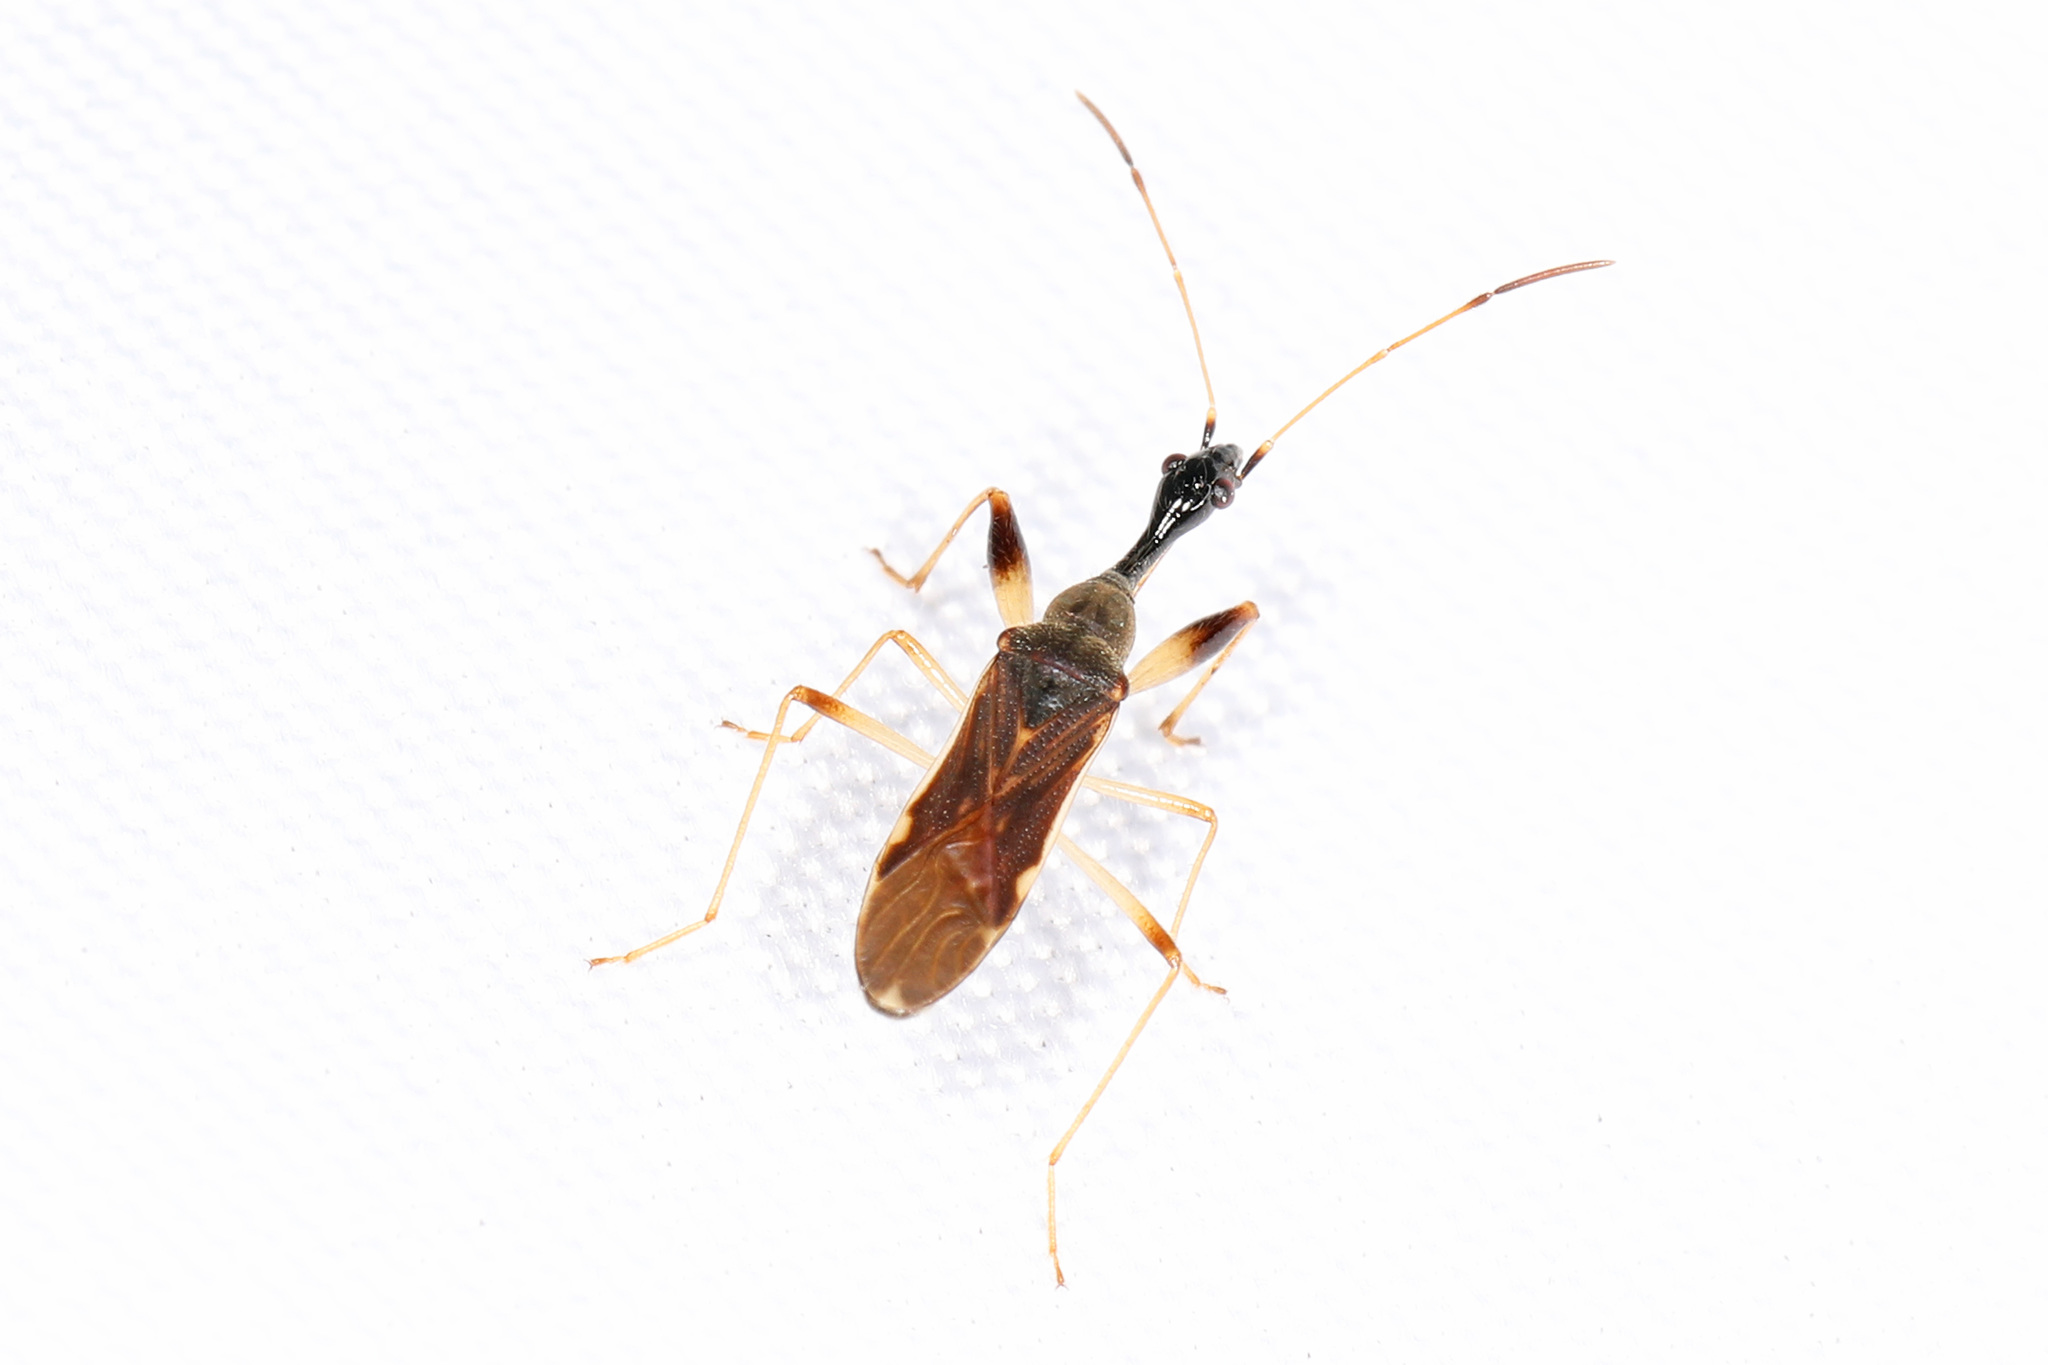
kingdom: Animalia
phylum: Arthropoda
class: Insecta
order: Hemiptera
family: Rhyparochromidae
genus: Myodocha
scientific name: Myodocha serripes
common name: Long-necked seed bug
